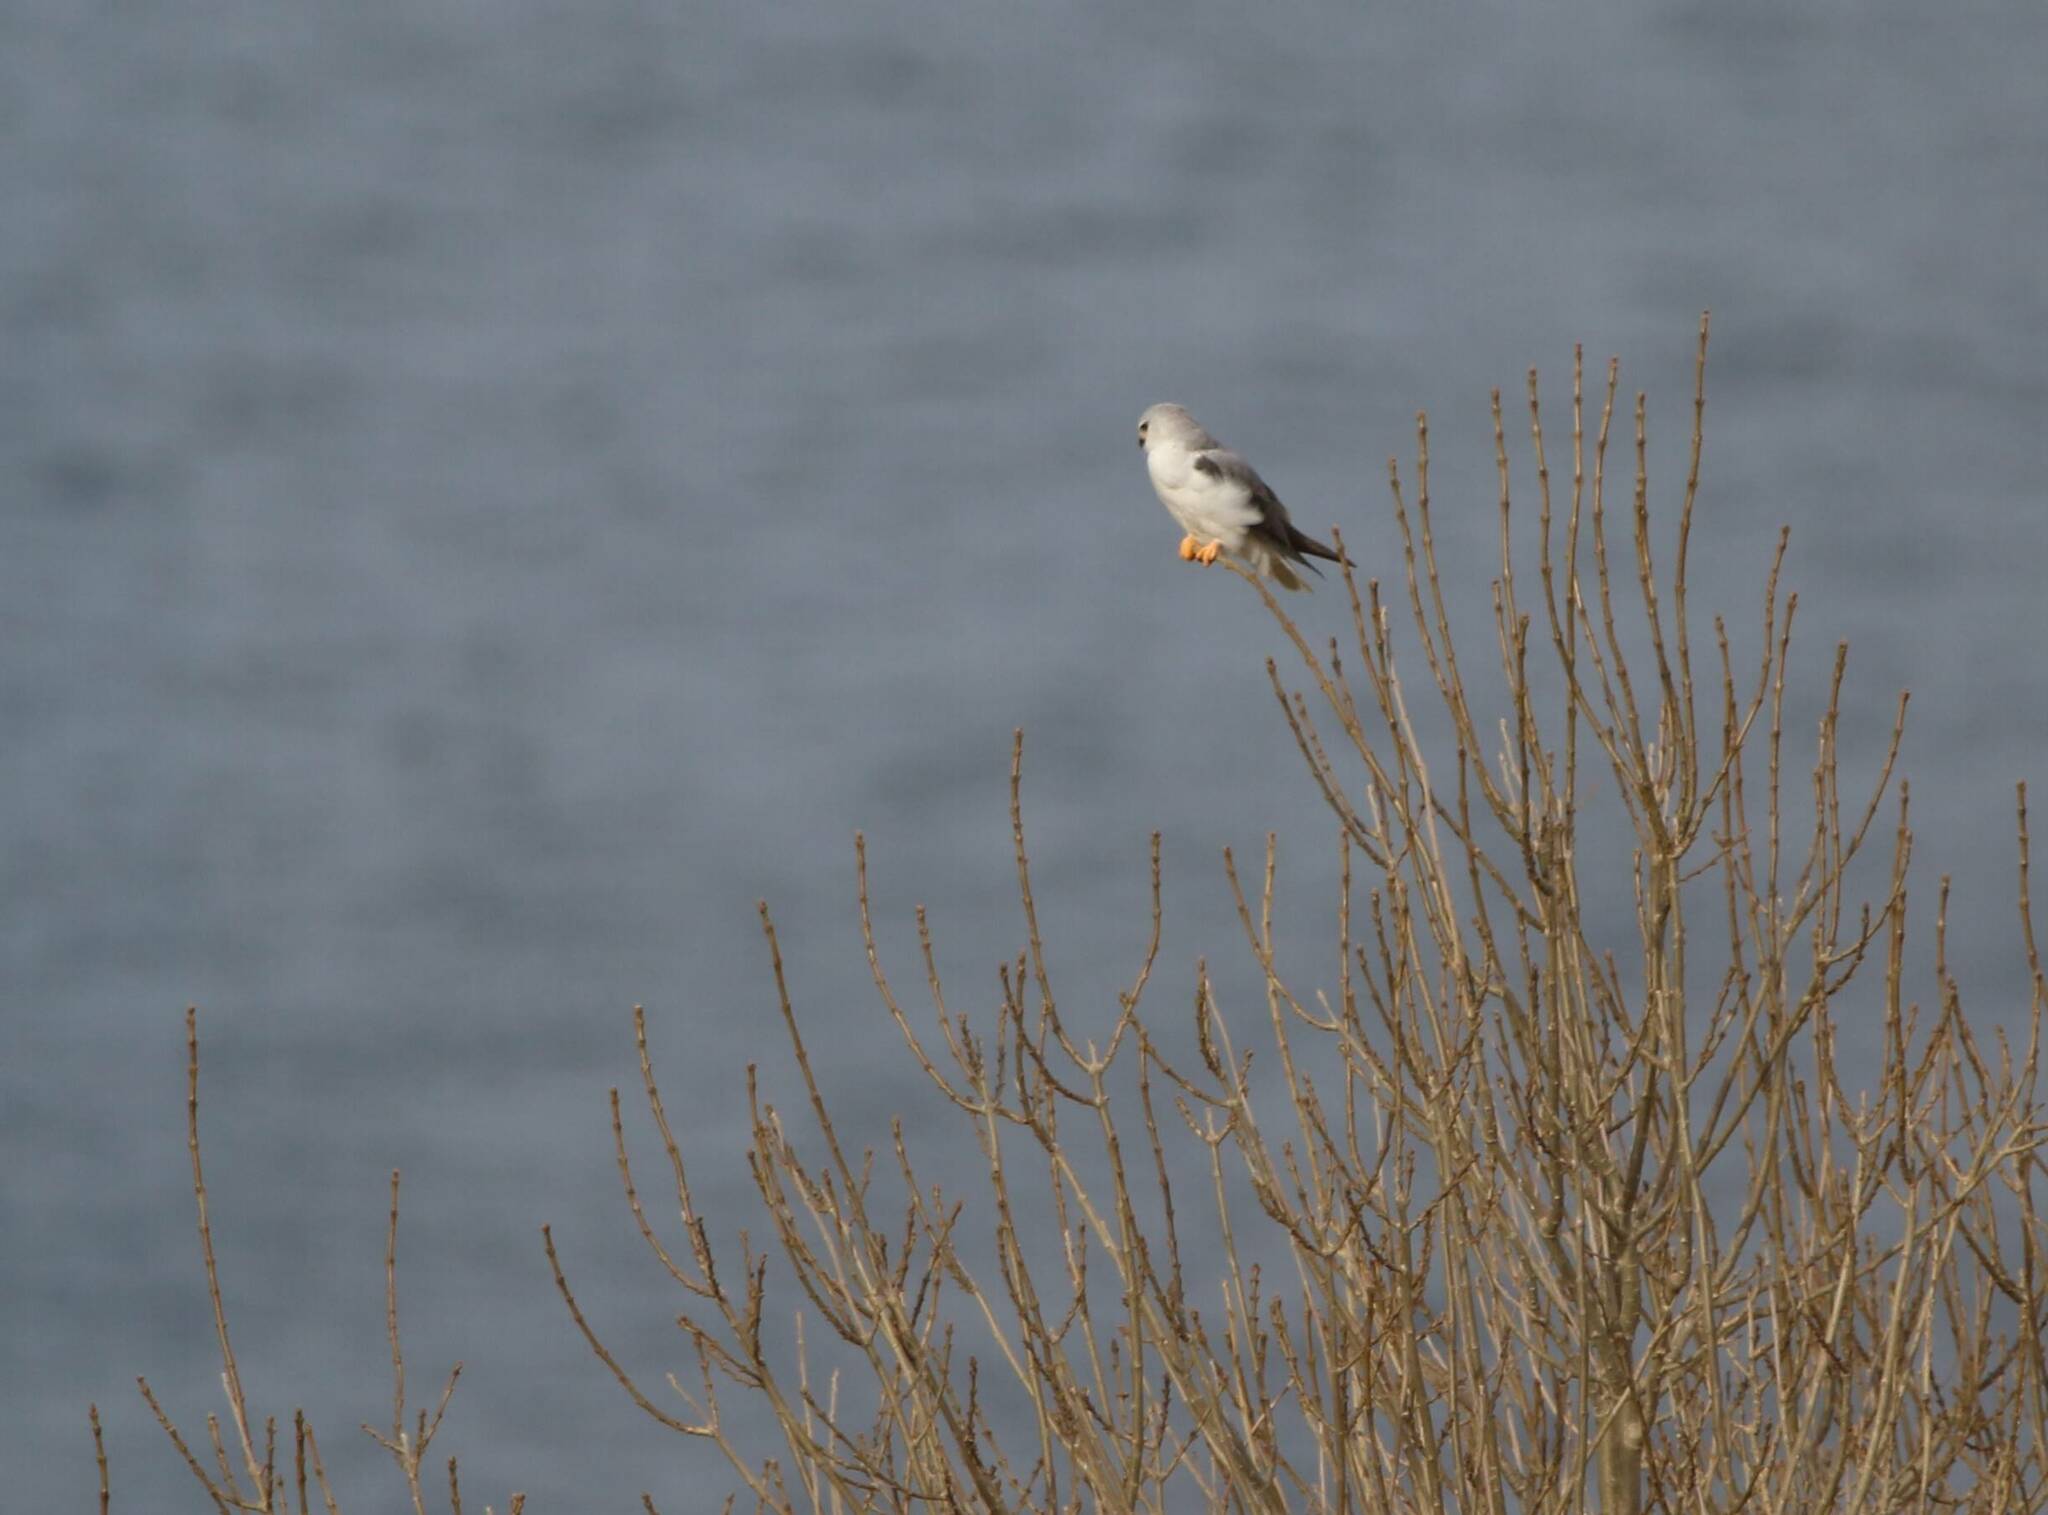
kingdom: Animalia
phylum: Chordata
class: Aves
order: Accipitriformes
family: Accipitridae
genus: Elanus
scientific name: Elanus caeruleus
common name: Black-winged kite
